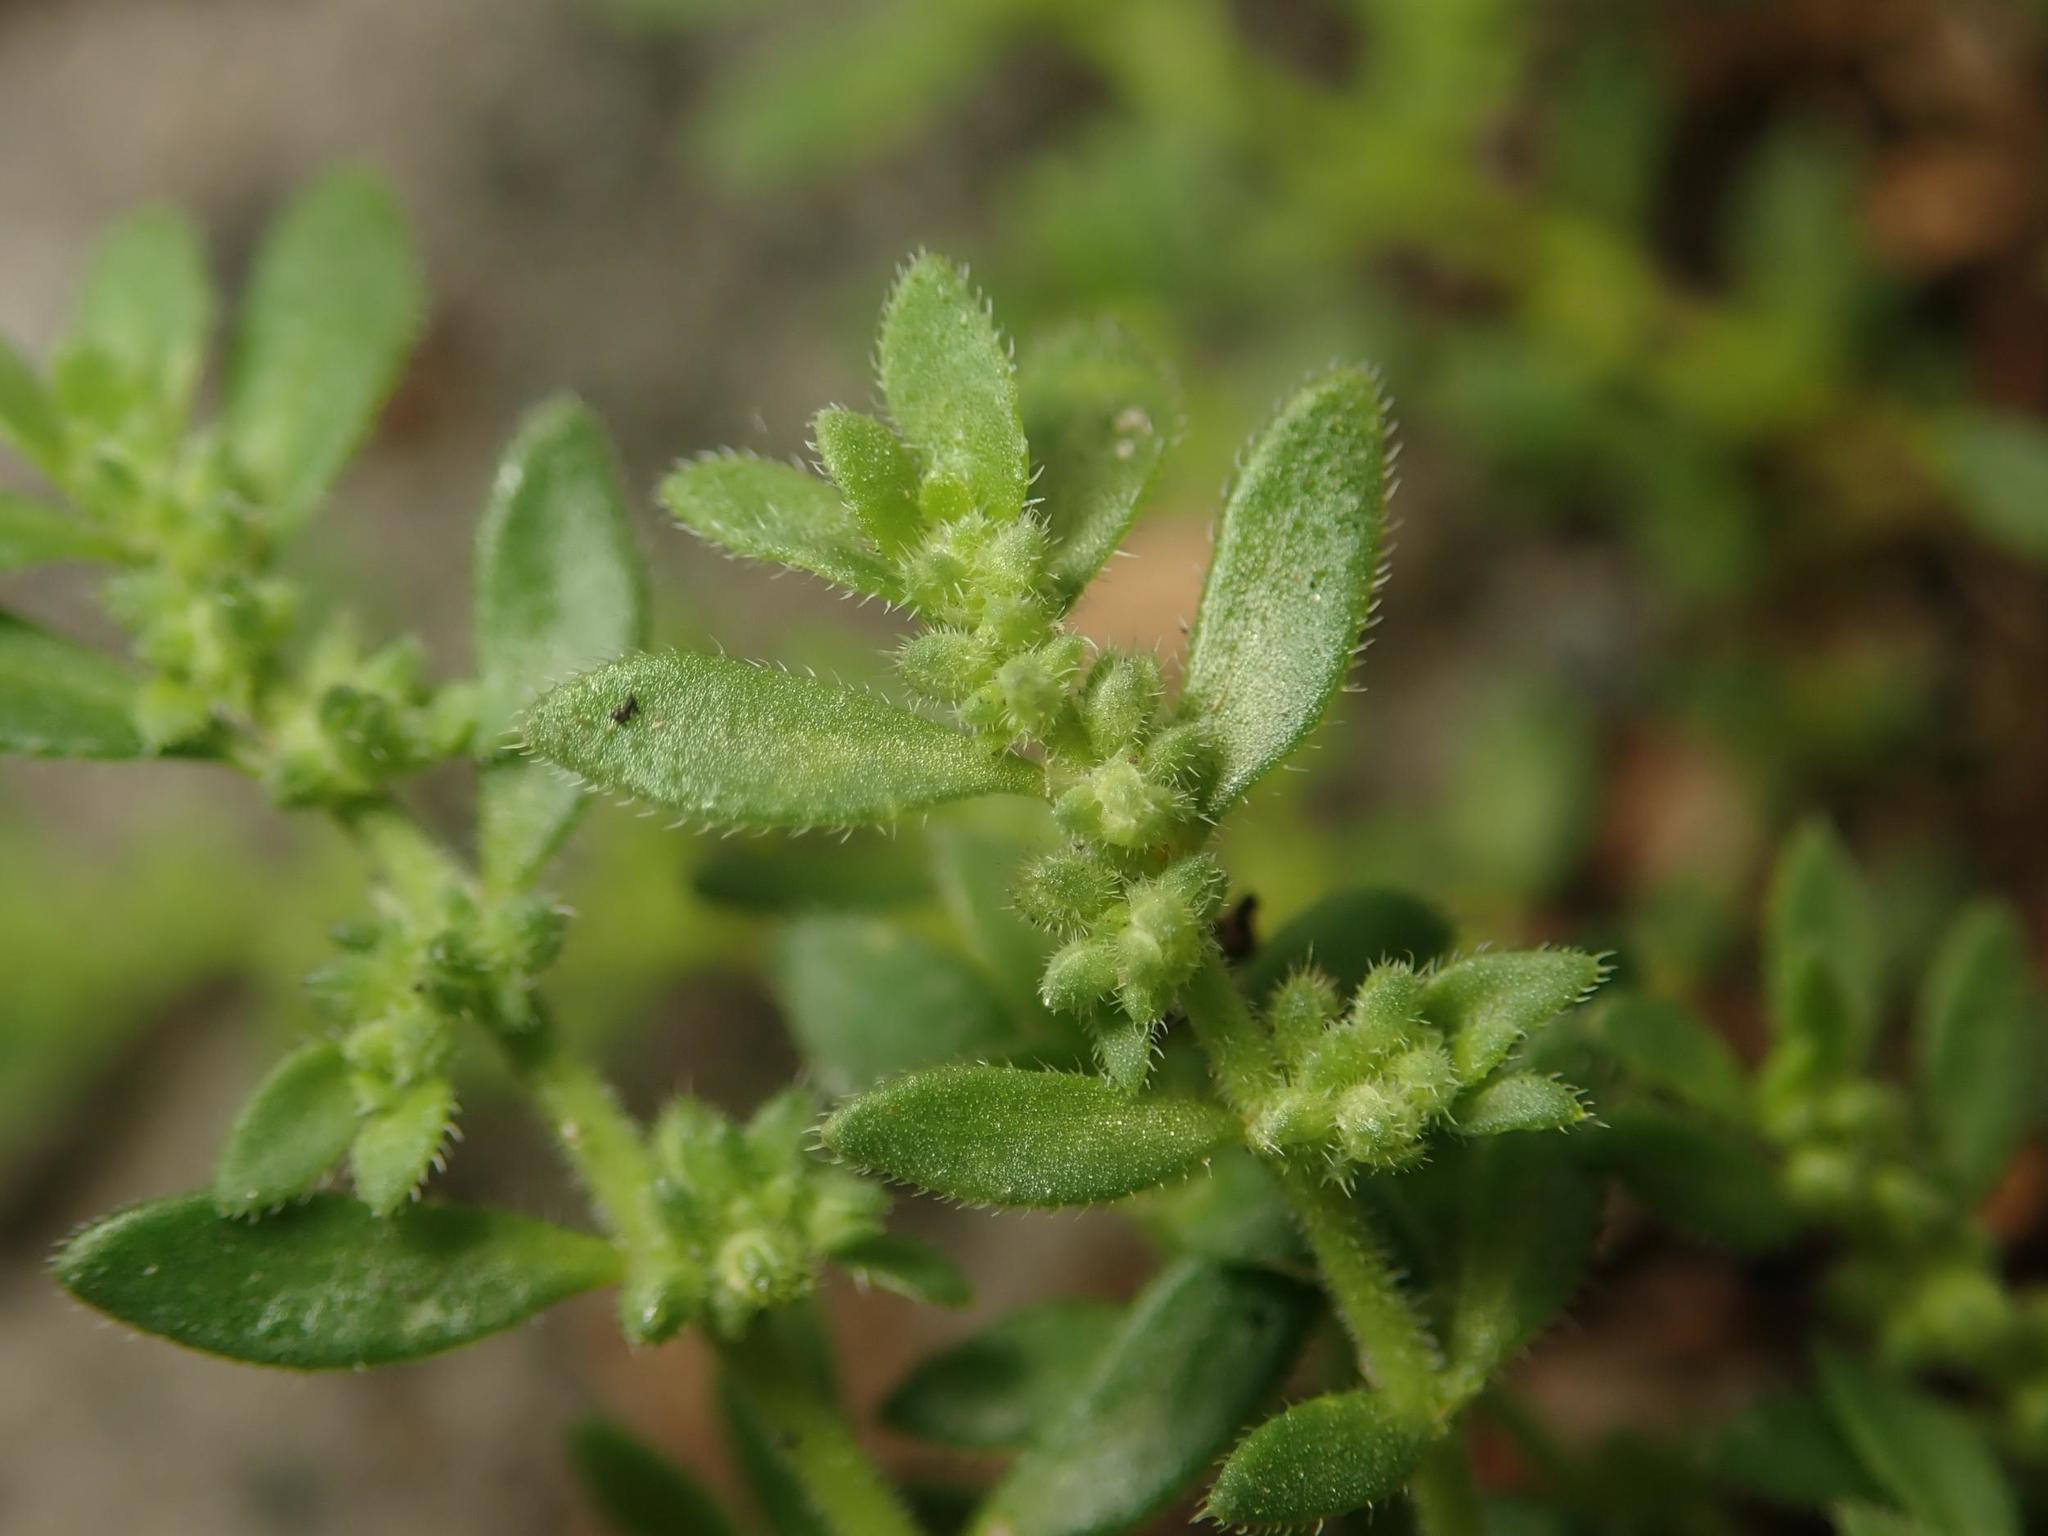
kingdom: Plantae
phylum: Tracheophyta
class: Magnoliopsida
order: Caryophyllales
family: Caryophyllaceae
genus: Herniaria
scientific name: Herniaria glabra
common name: Smooth rupturewort
